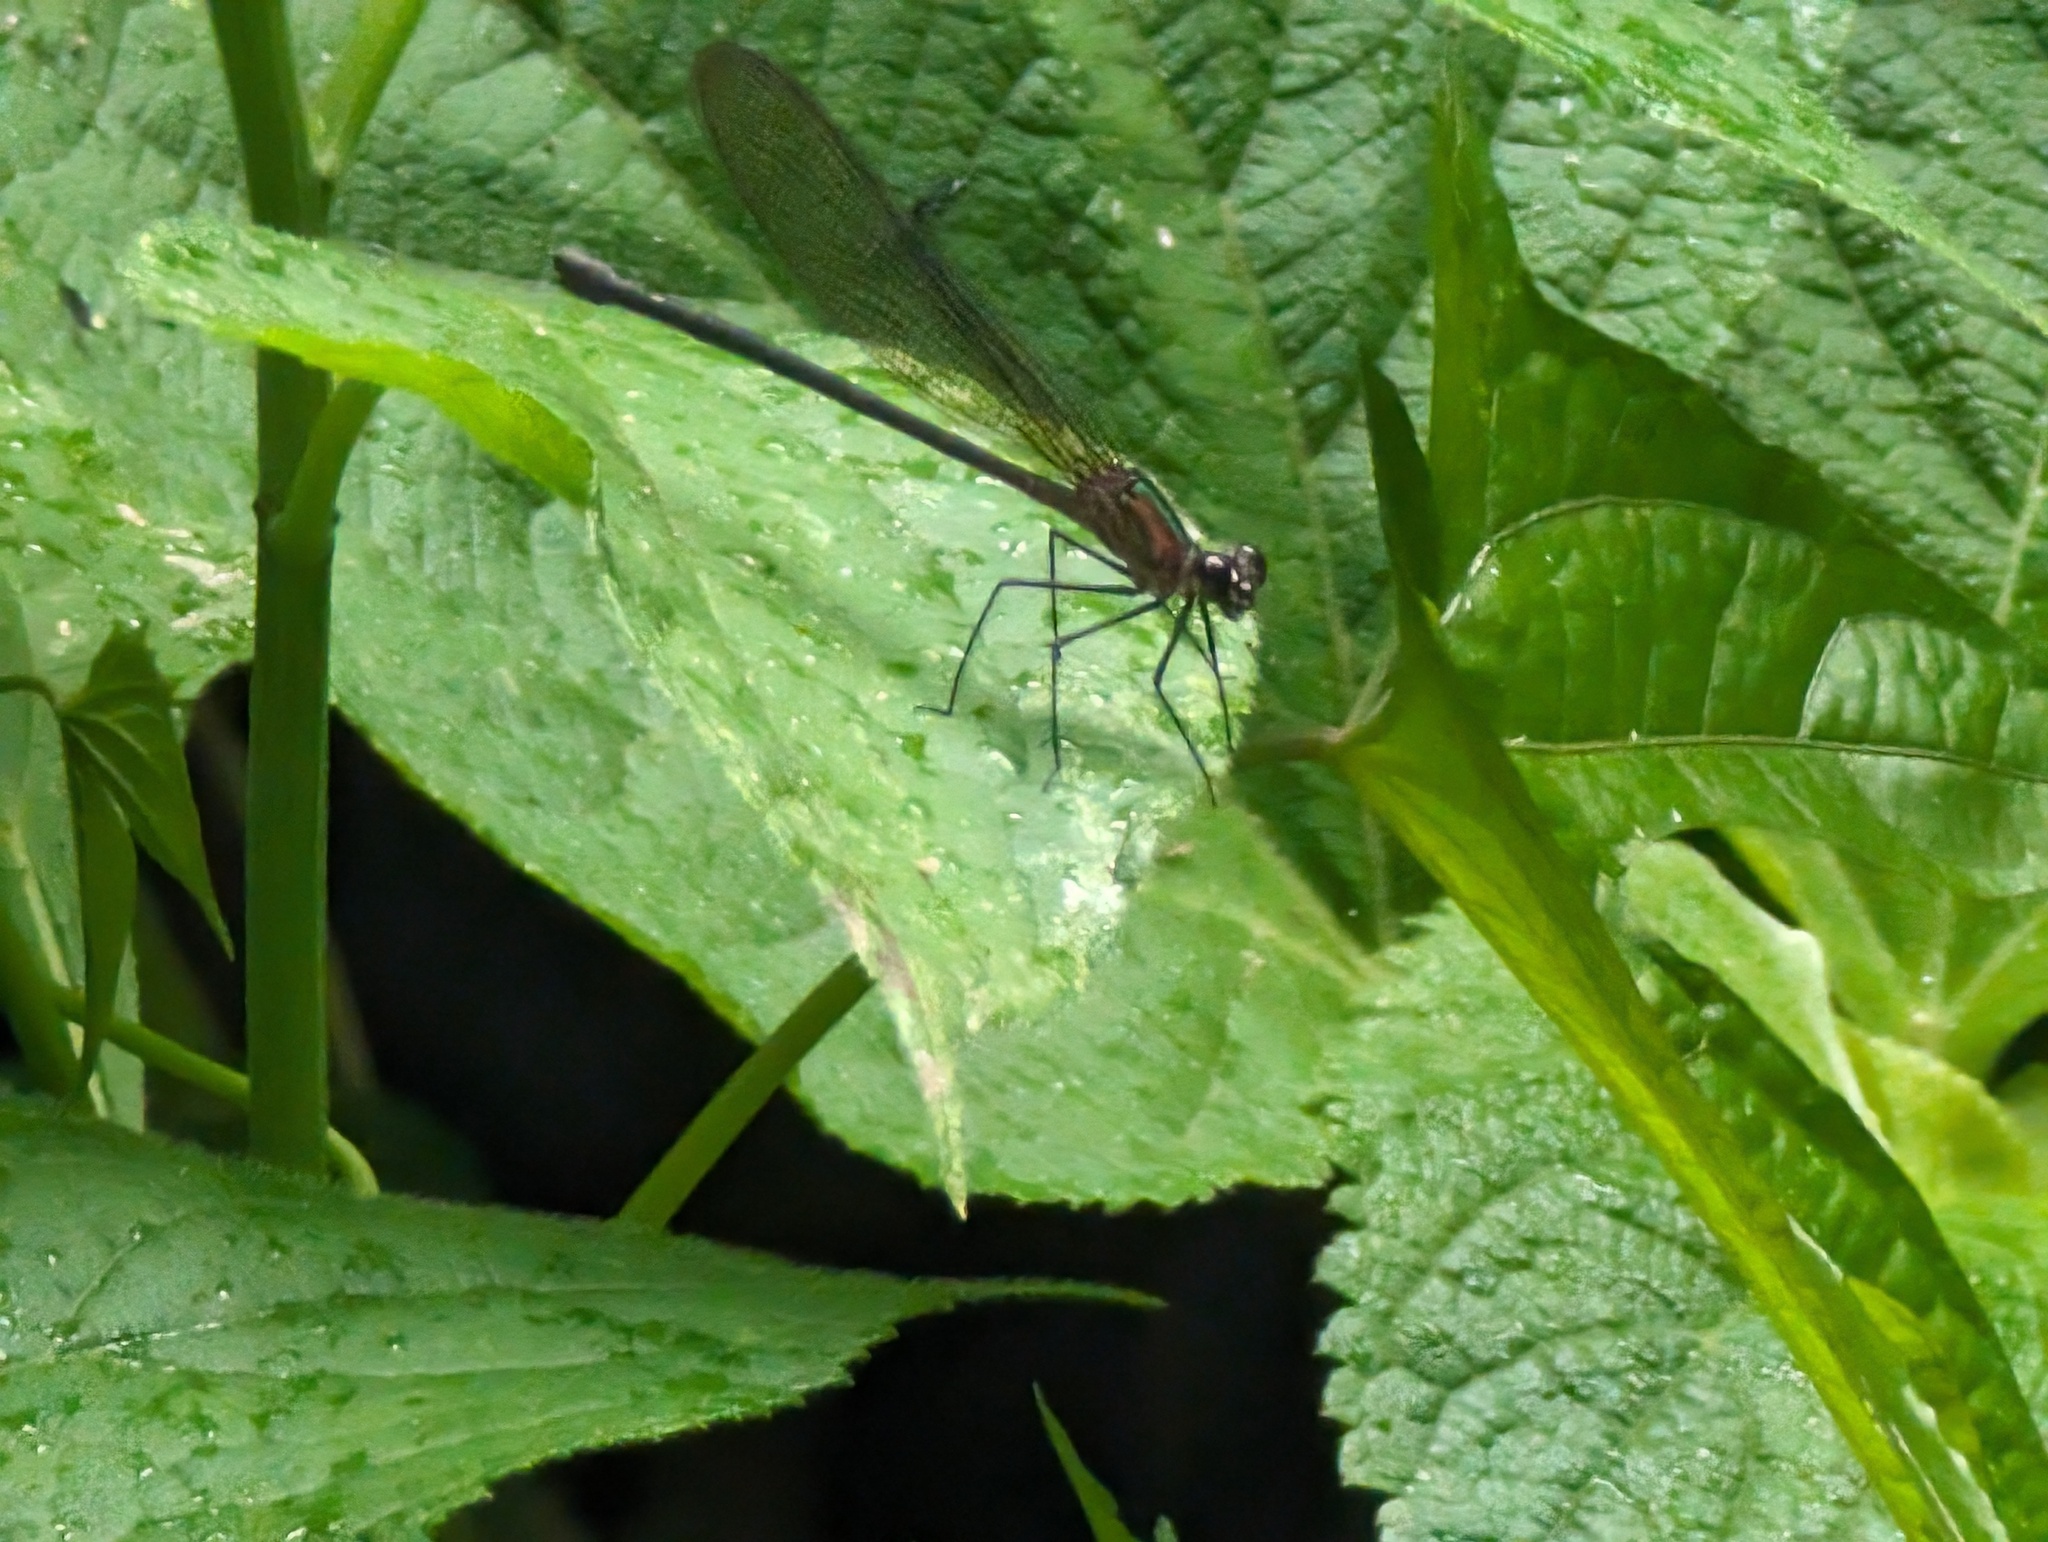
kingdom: Animalia
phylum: Arthropoda
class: Insecta
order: Odonata
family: Calopterygidae
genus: Hetaerina
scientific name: Hetaerina cruentata
